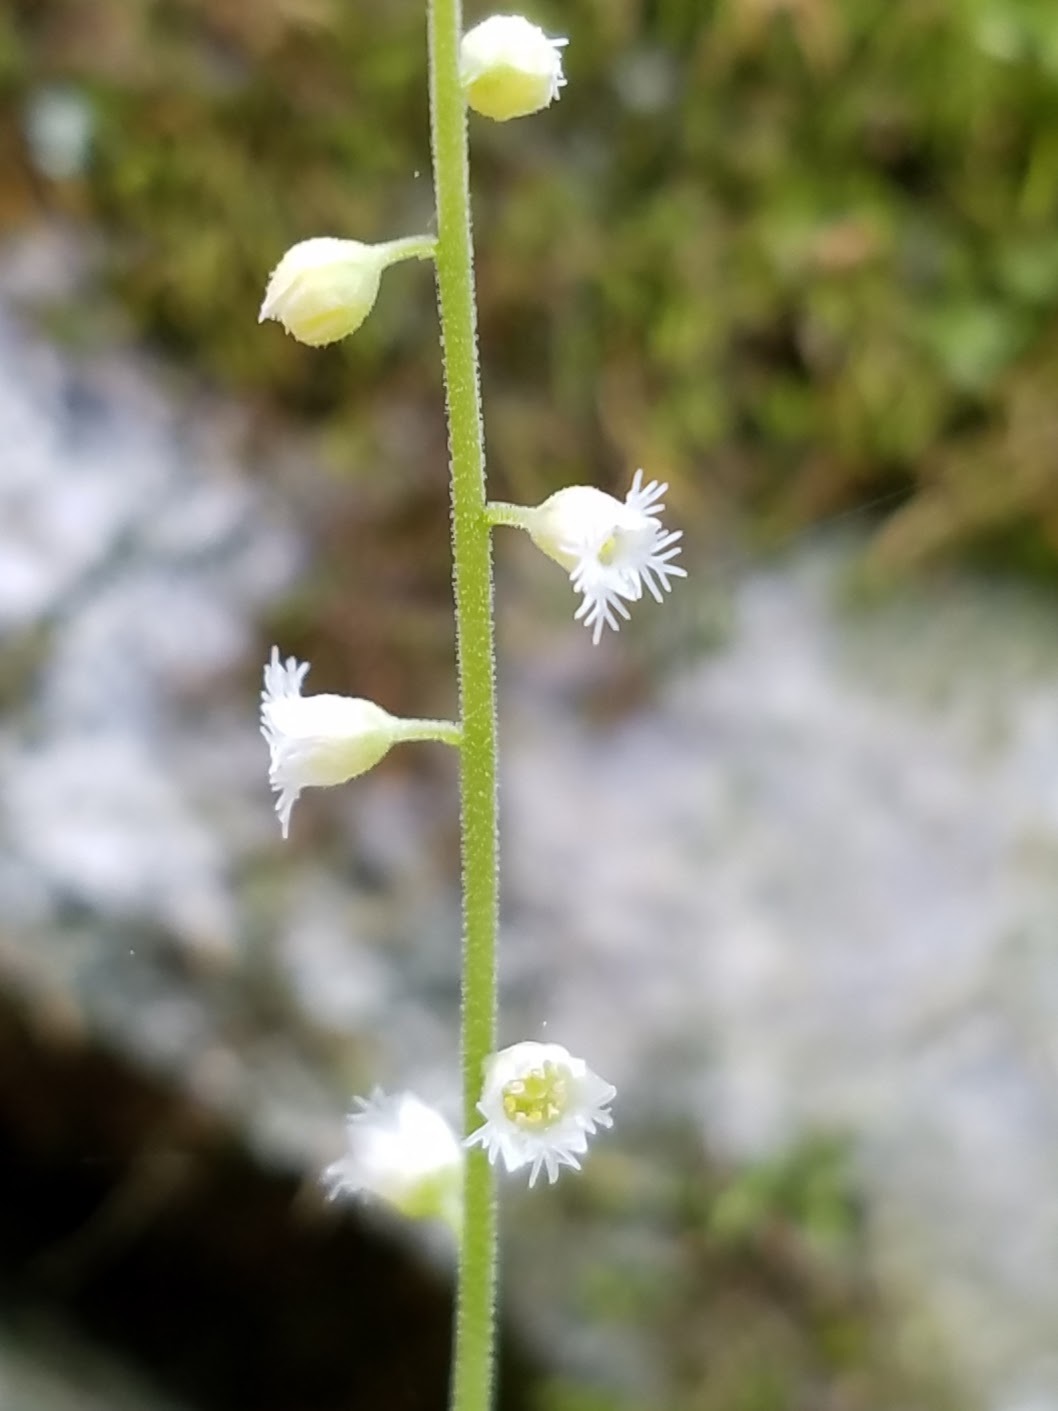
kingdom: Plantae
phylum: Tracheophyta
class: Magnoliopsida
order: Saxifragales
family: Saxifragaceae
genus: Mitella
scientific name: Mitella diphylla
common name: Coolwort
